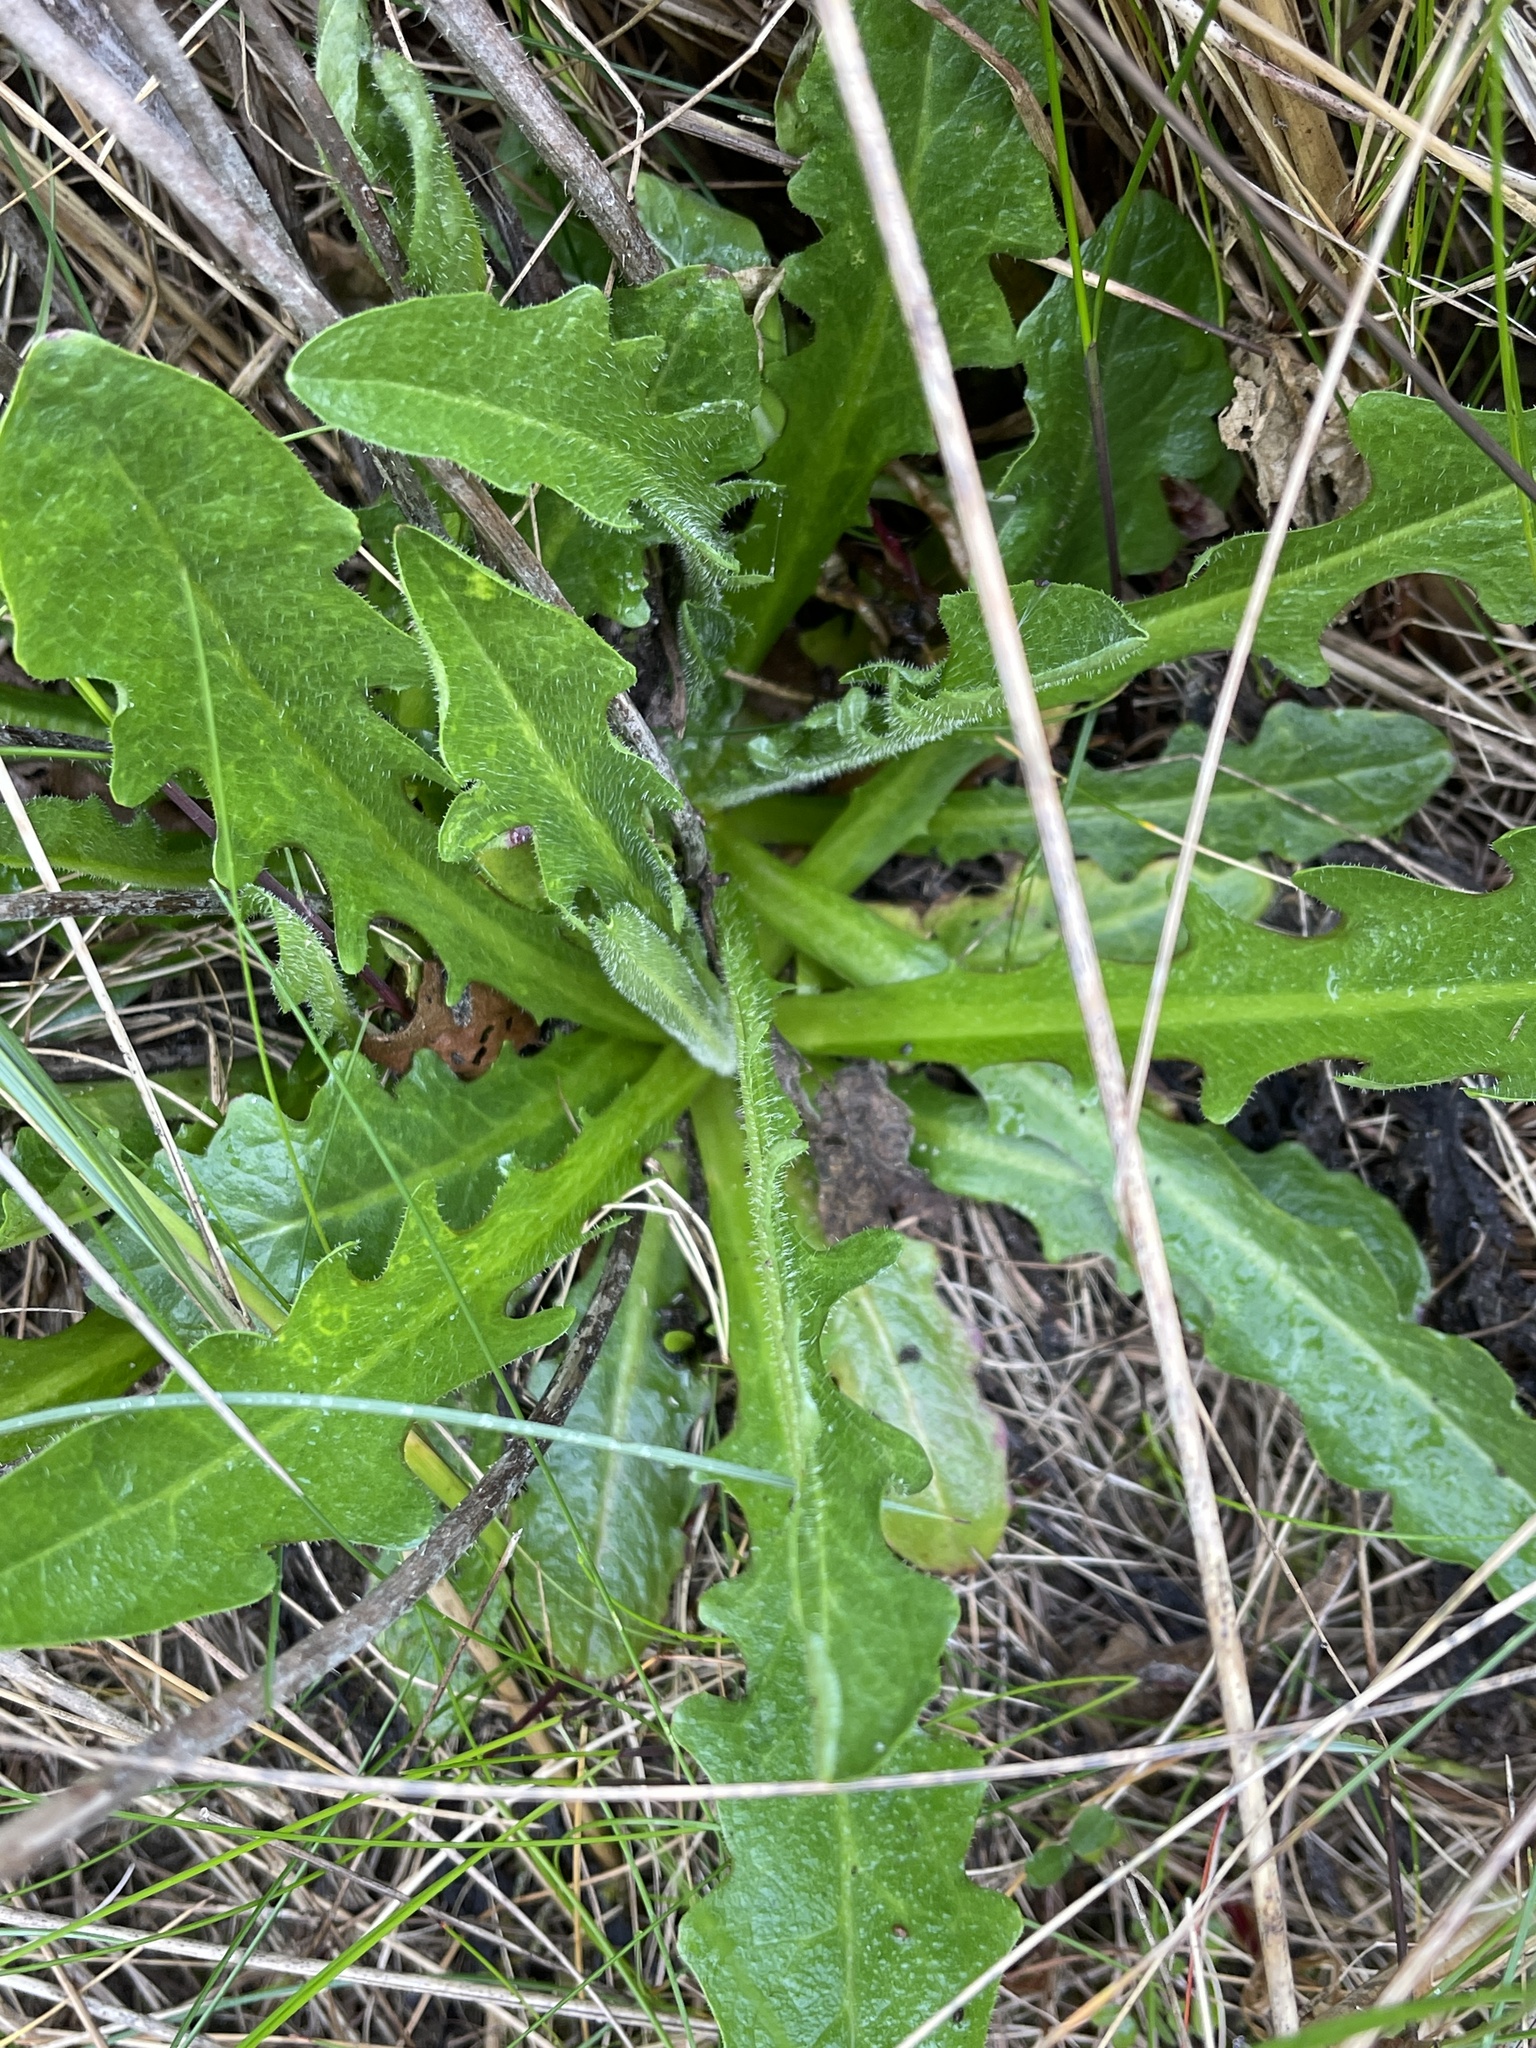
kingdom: Plantae
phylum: Tracheophyta
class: Magnoliopsida
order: Asterales
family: Asteraceae
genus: Hypochaeris
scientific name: Hypochaeris radicata
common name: Flatweed
